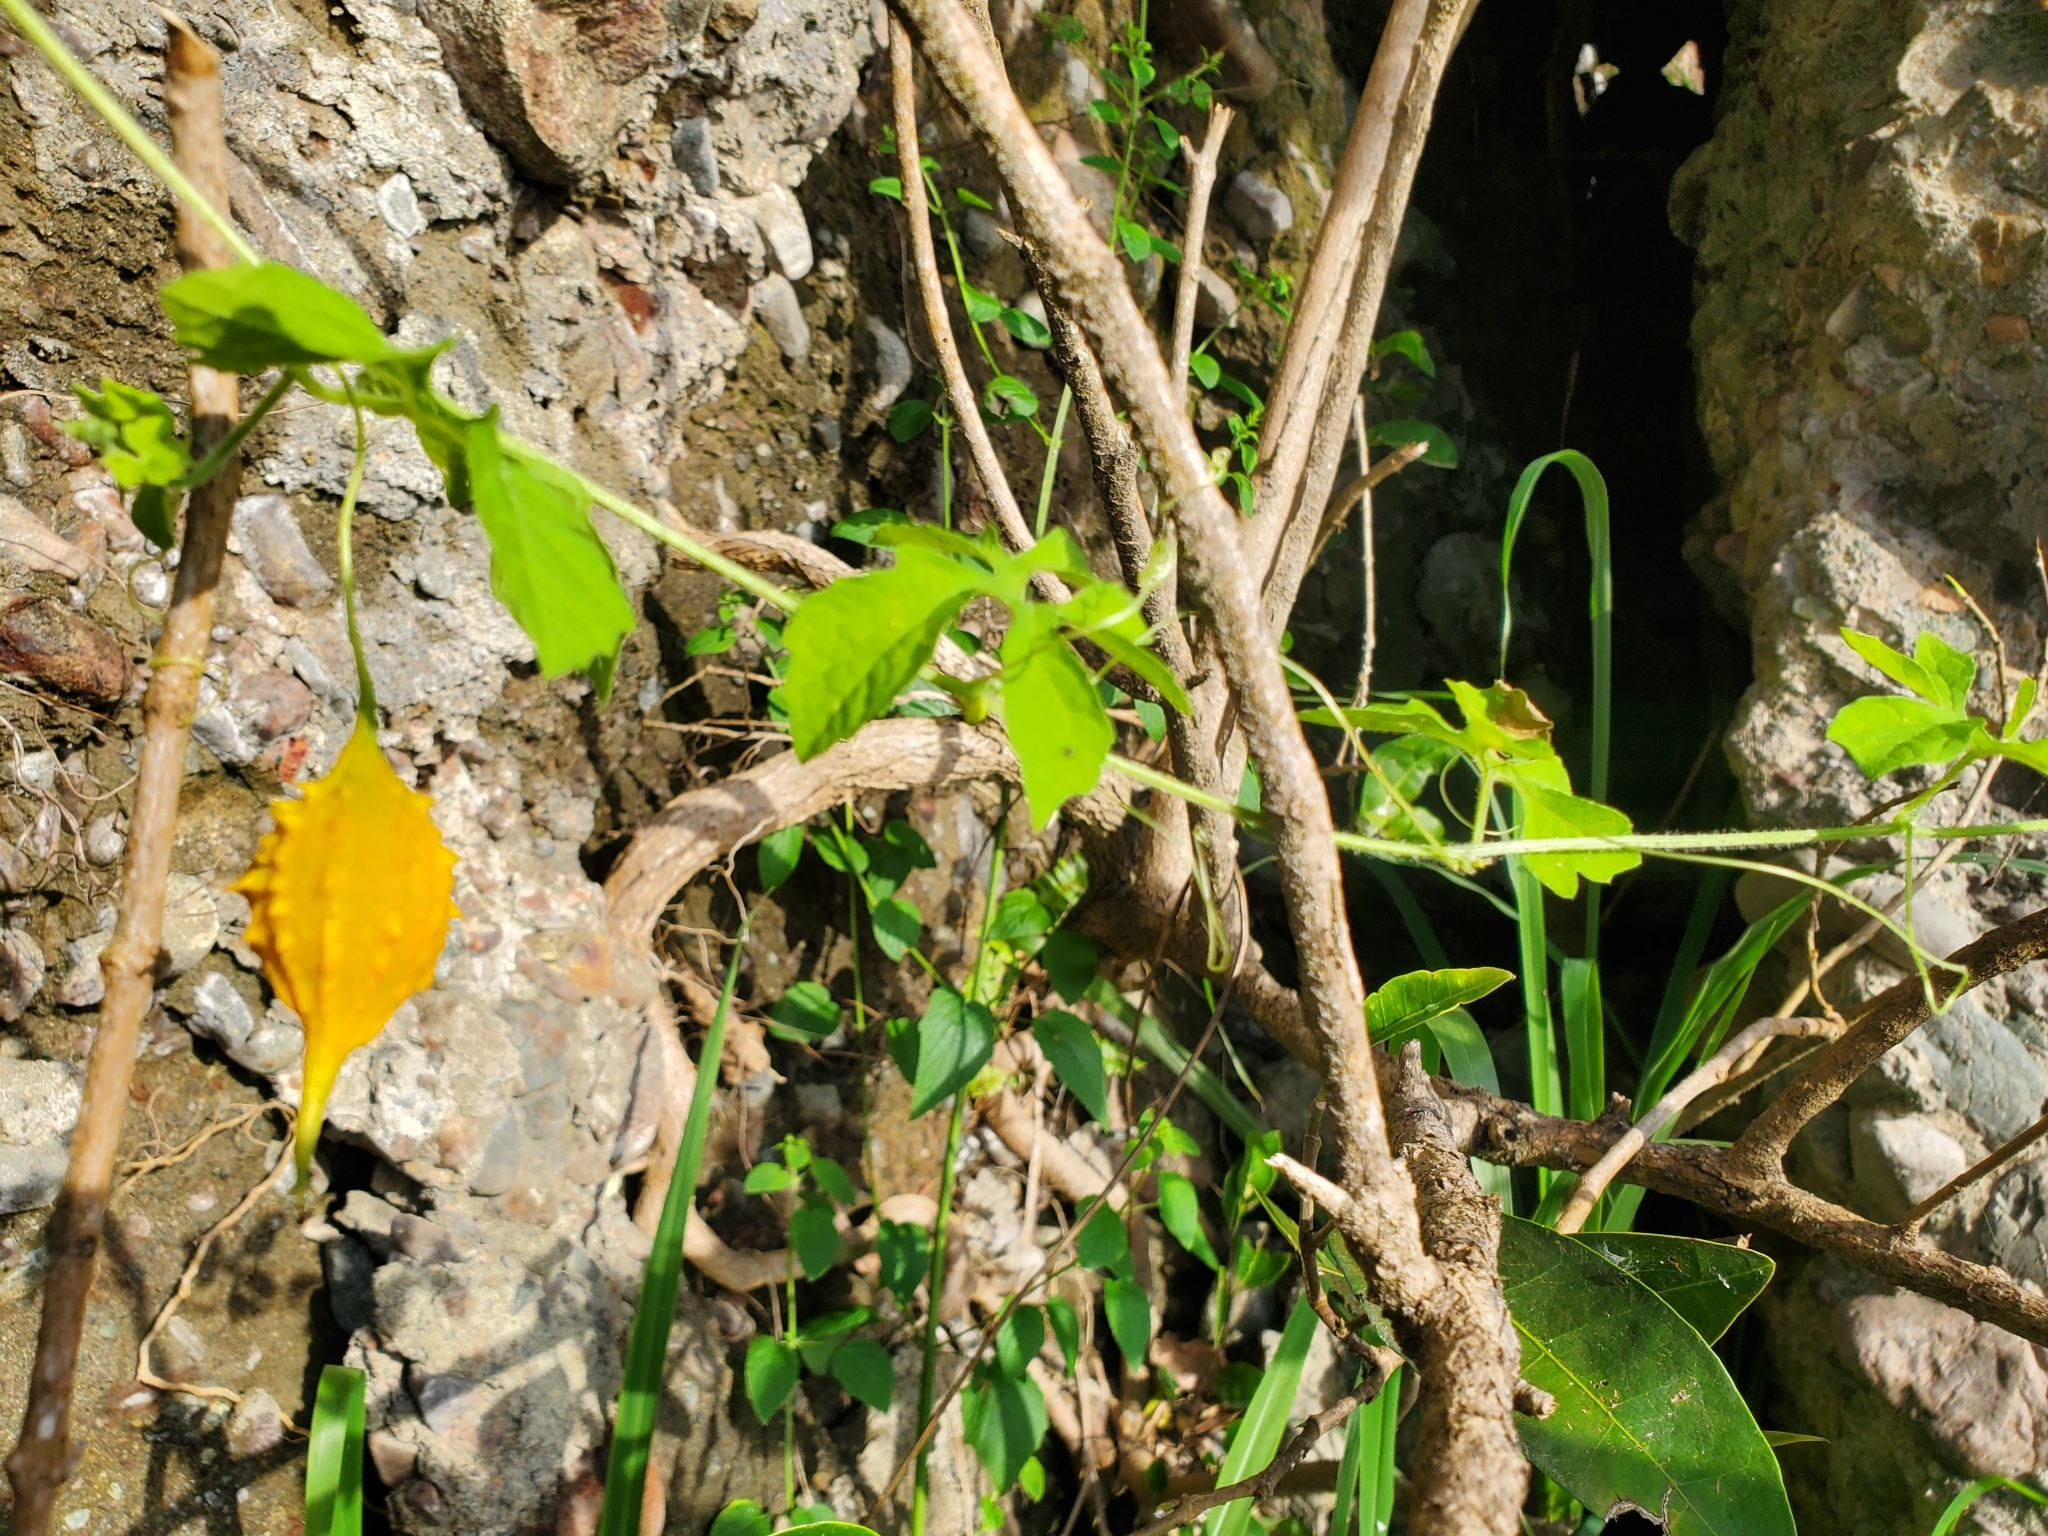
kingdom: Plantae
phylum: Tracheophyta
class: Magnoliopsida
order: Cucurbitales
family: Cucurbitaceae
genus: Momordica
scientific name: Momordica charantia
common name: Balsampear
